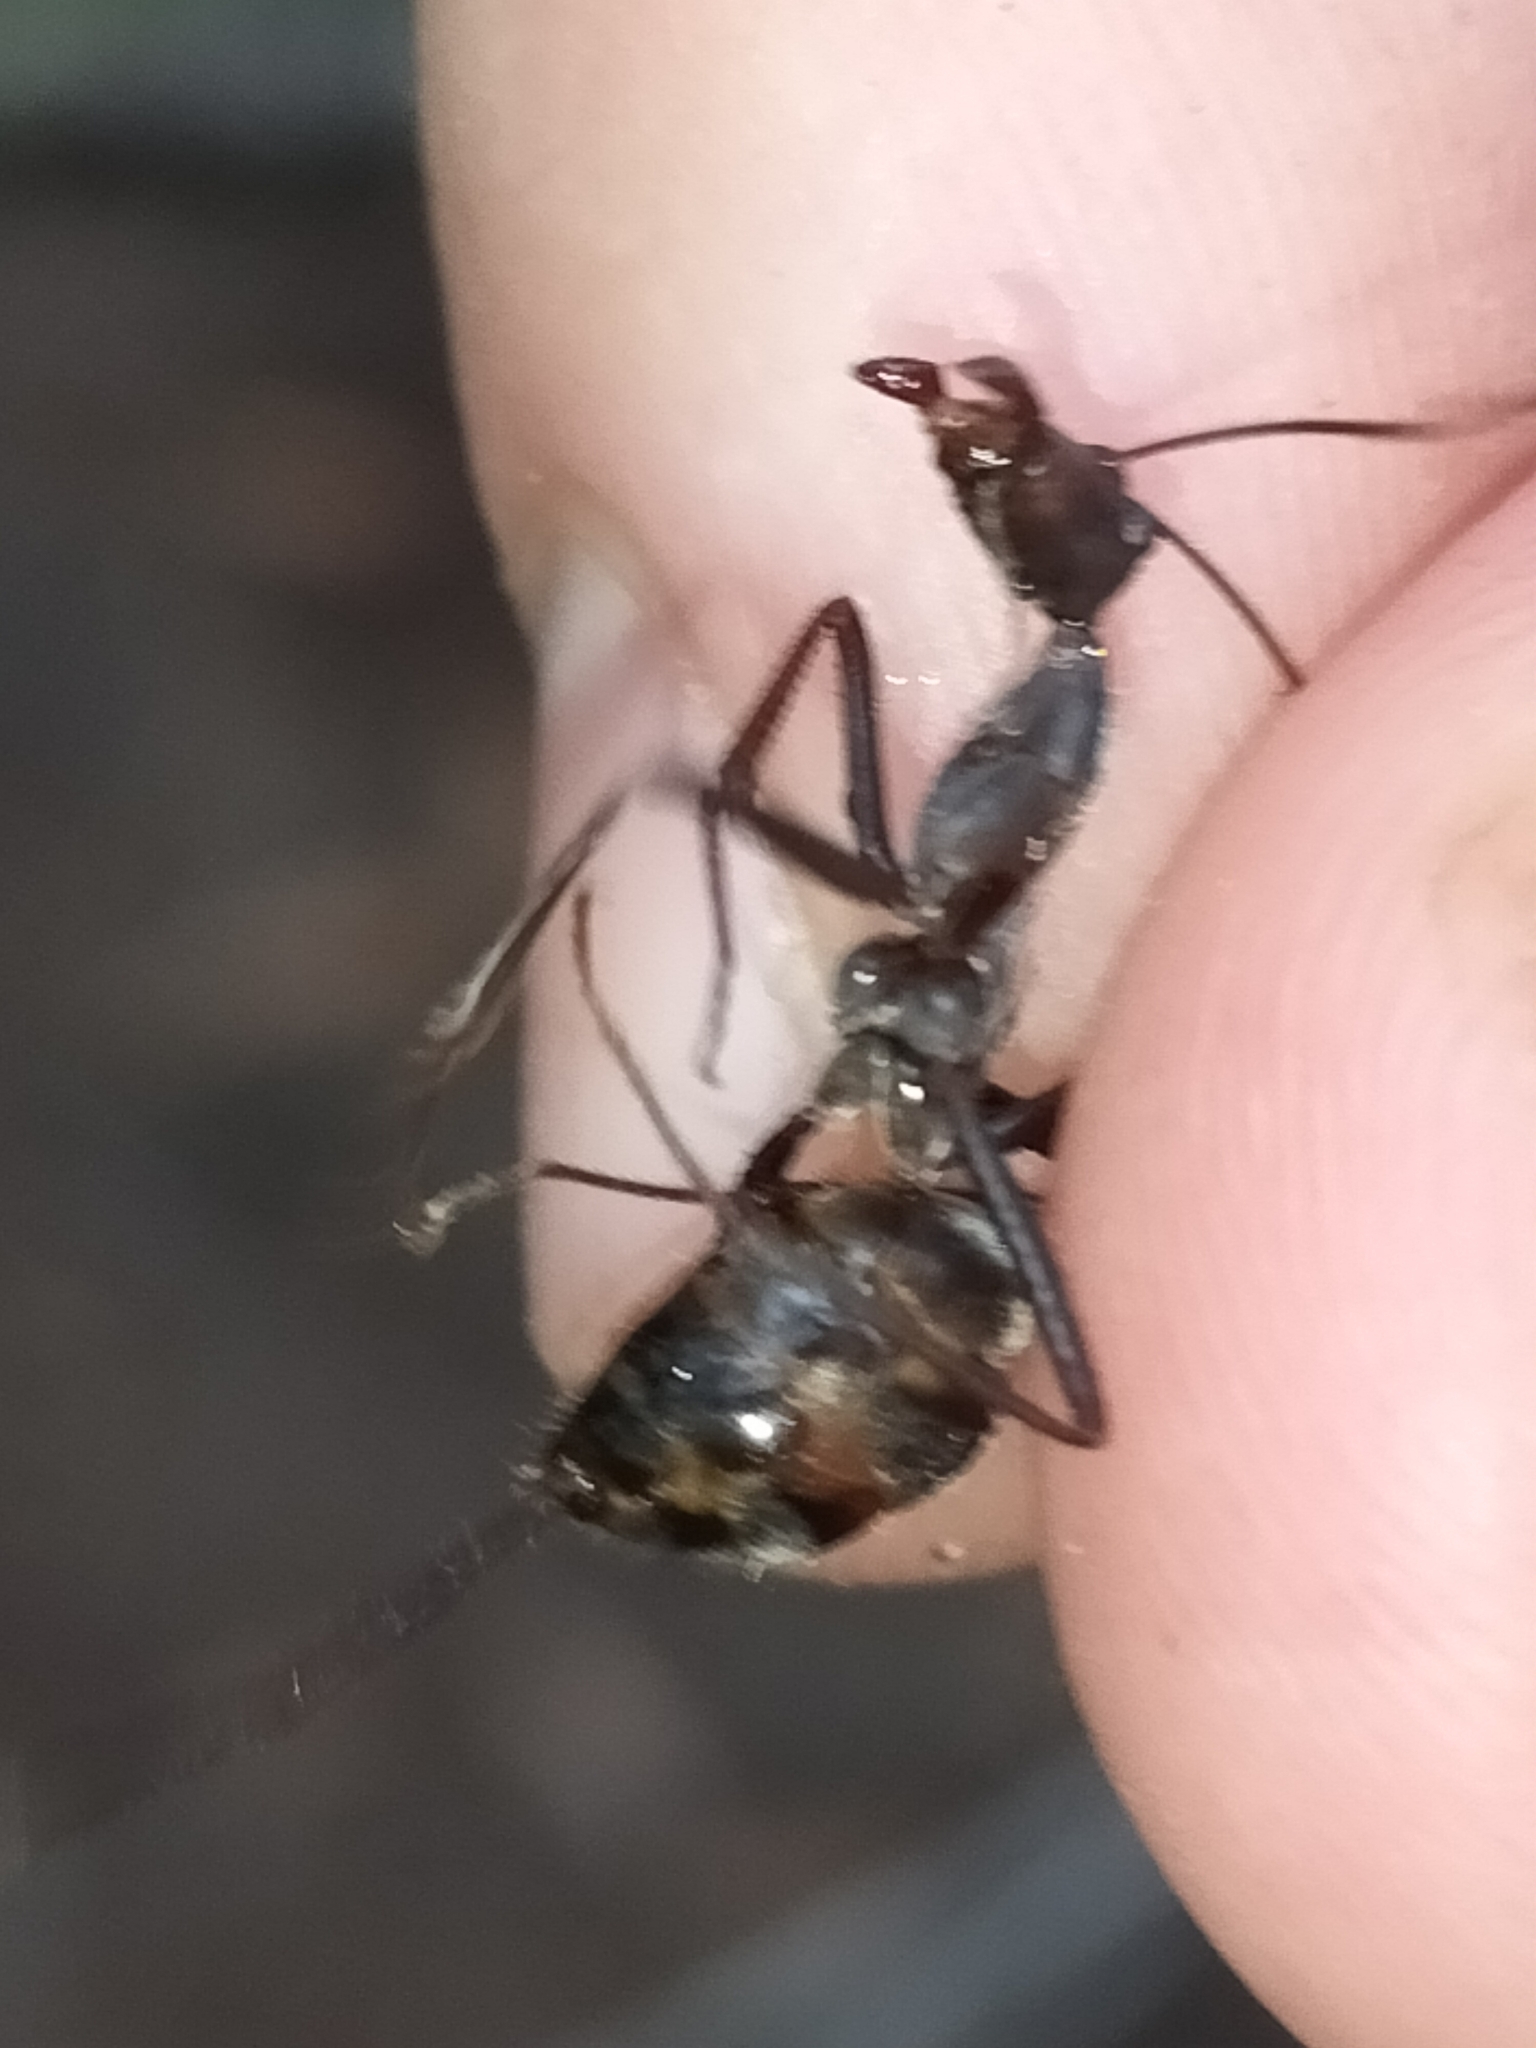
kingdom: Animalia
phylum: Arthropoda
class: Insecta
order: Hymenoptera
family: Formicidae
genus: Notostigma
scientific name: Notostigma carazzii
